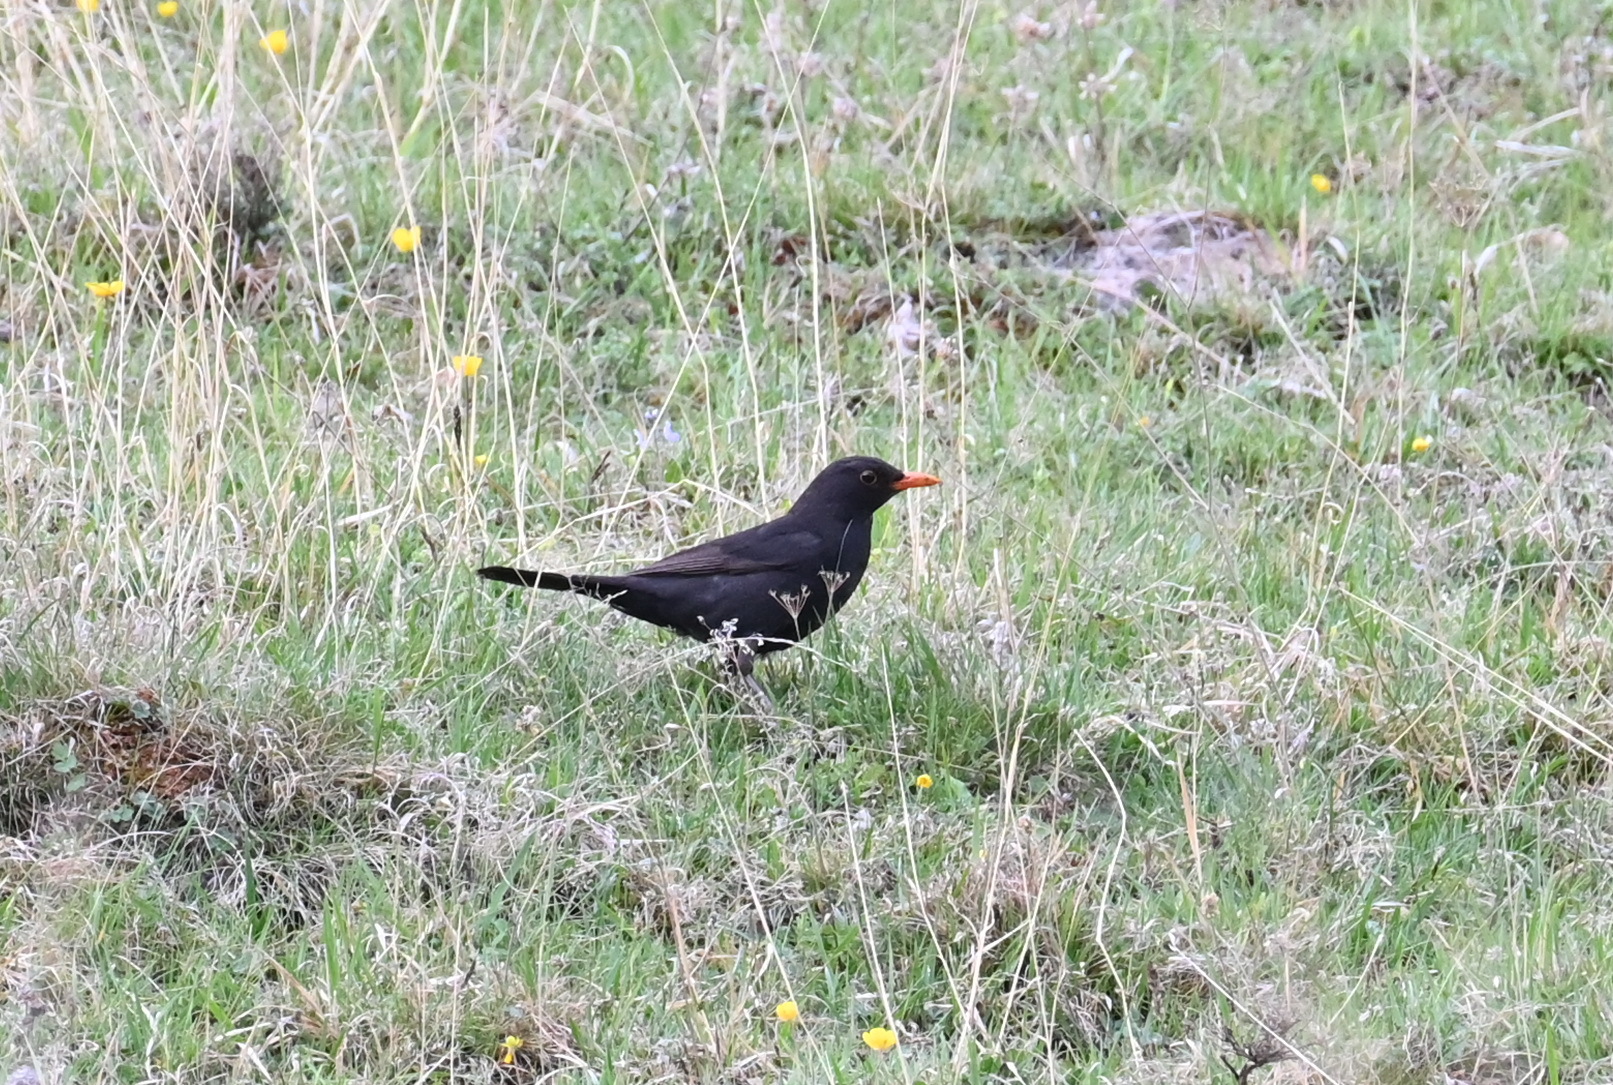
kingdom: Animalia
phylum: Chordata
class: Aves
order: Passeriformes
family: Turdidae
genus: Turdus
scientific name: Turdus merula
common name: Common blackbird
